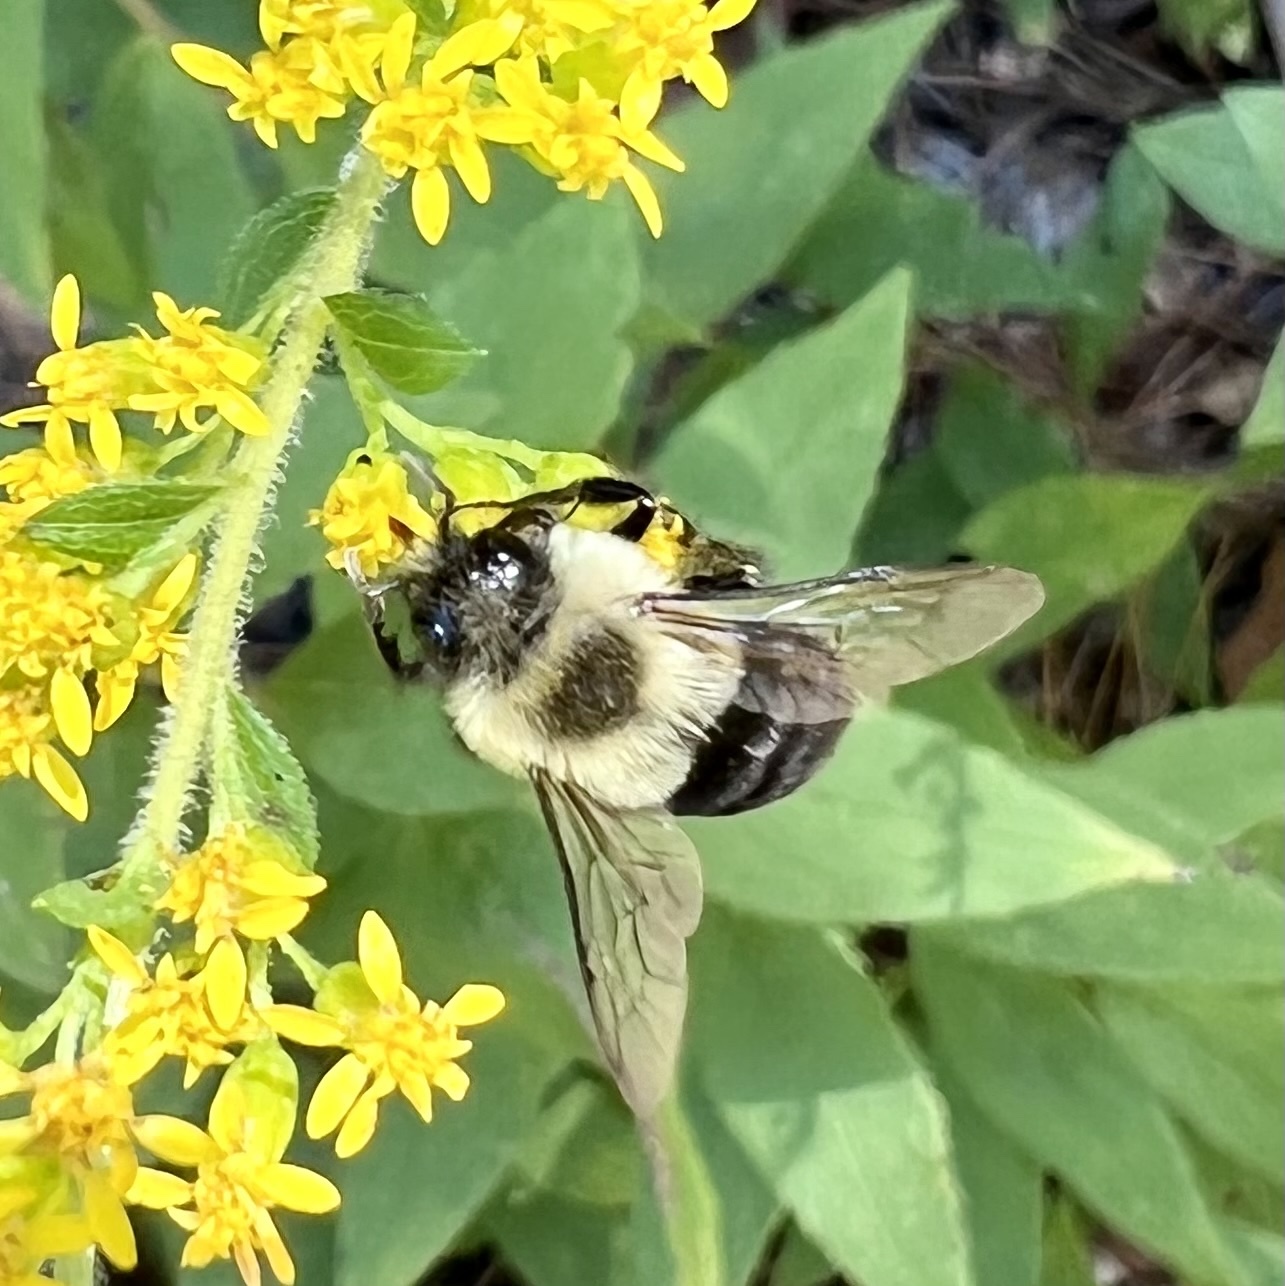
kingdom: Animalia
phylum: Arthropoda
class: Insecta
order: Hymenoptera
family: Apidae
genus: Bombus
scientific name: Bombus impatiens
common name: Common eastern bumble bee
